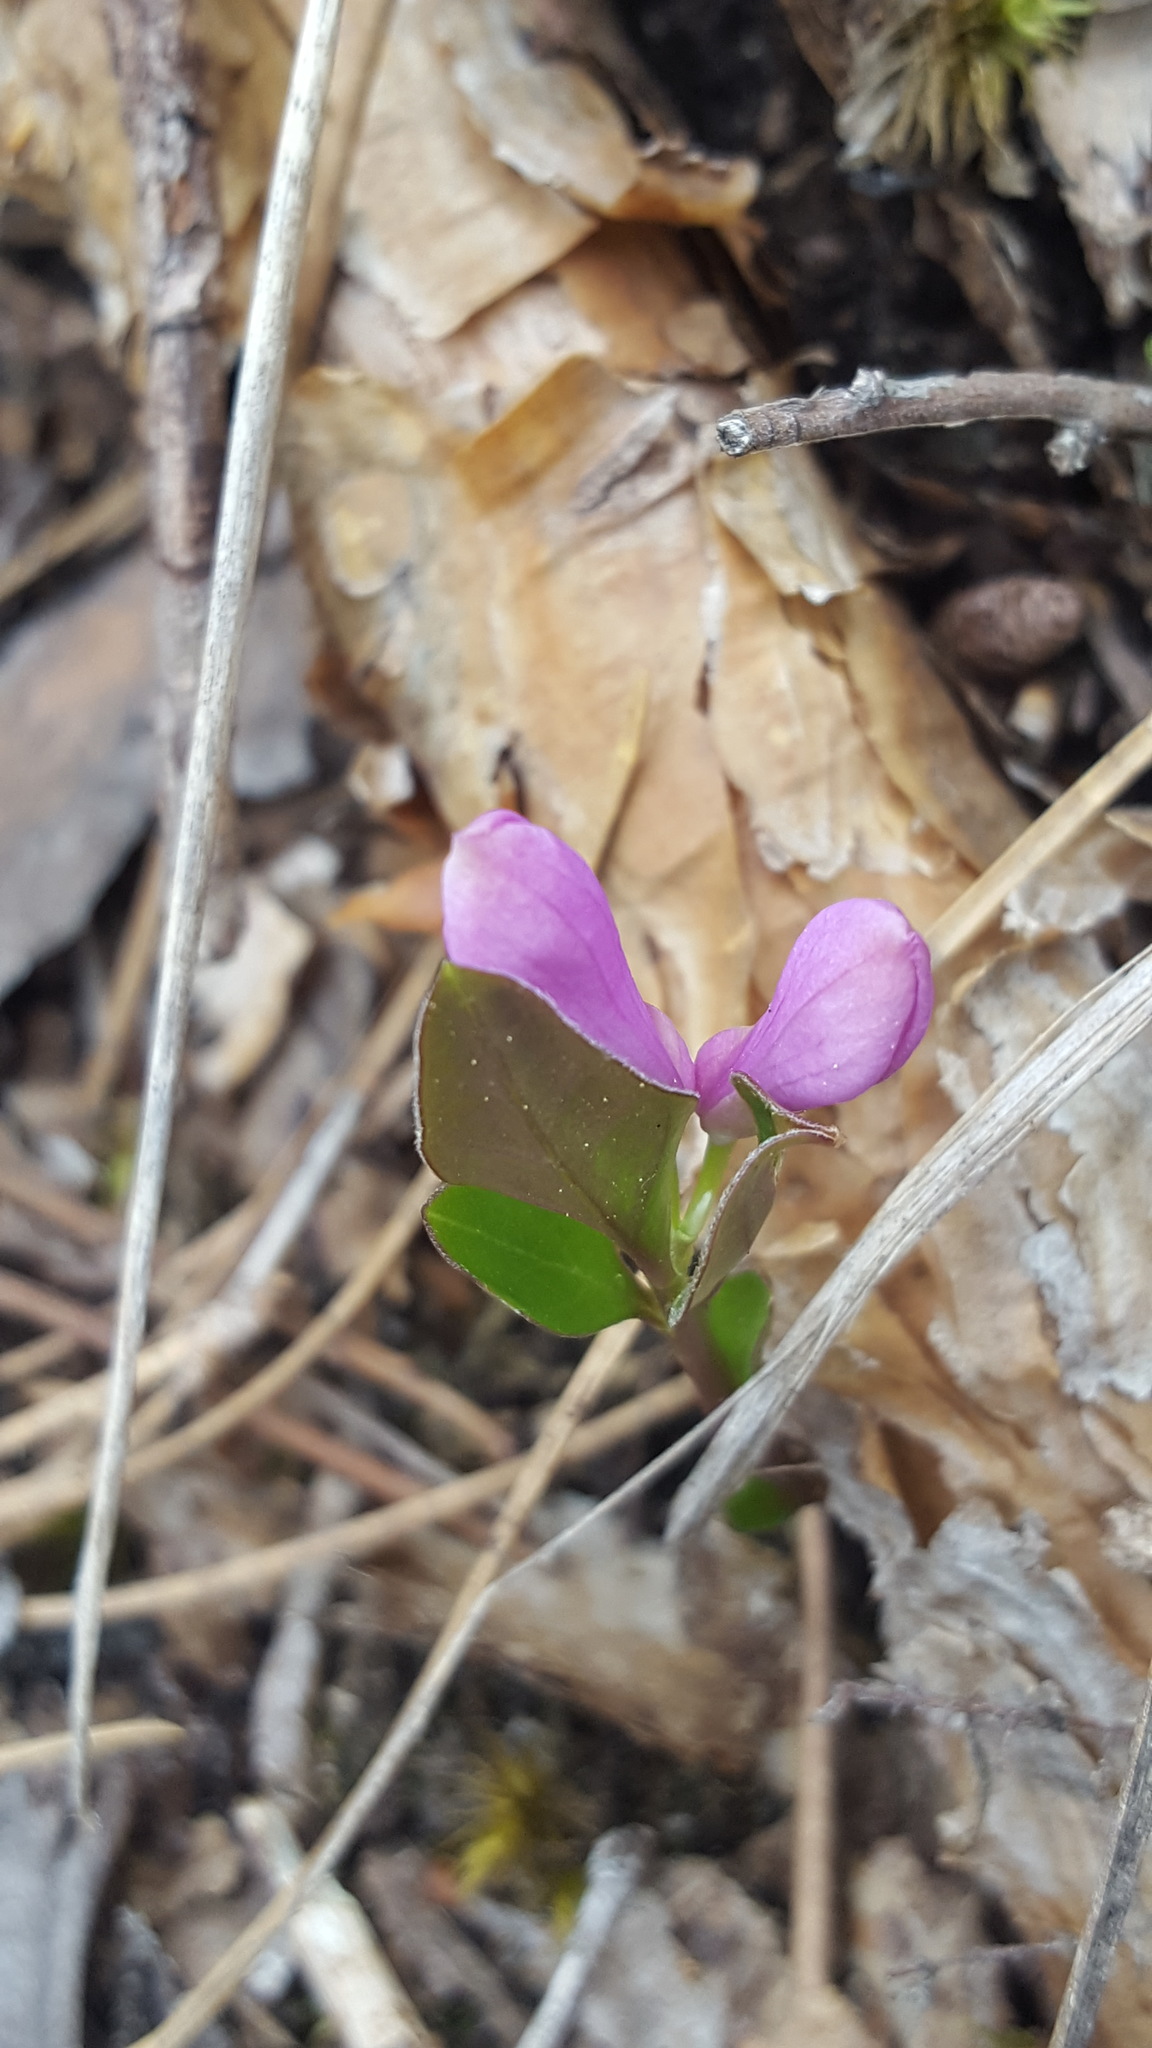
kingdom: Plantae
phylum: Tracheophyta
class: Magnoliopsida
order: Fabales
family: Polygalaceae
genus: Polygaloides
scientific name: Polygaloides paucifolia
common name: Bird-on-the-wing
